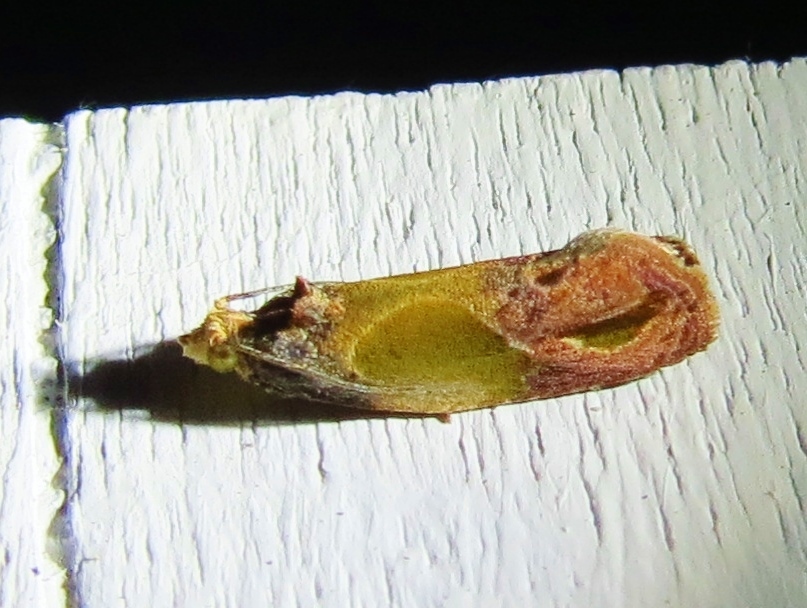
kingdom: Animalia
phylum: Arthropoda
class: Insecta
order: Lepidoptera
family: Tortricidae
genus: Eumarozia
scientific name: Eumarozia malachitana
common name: Sculptured moth
